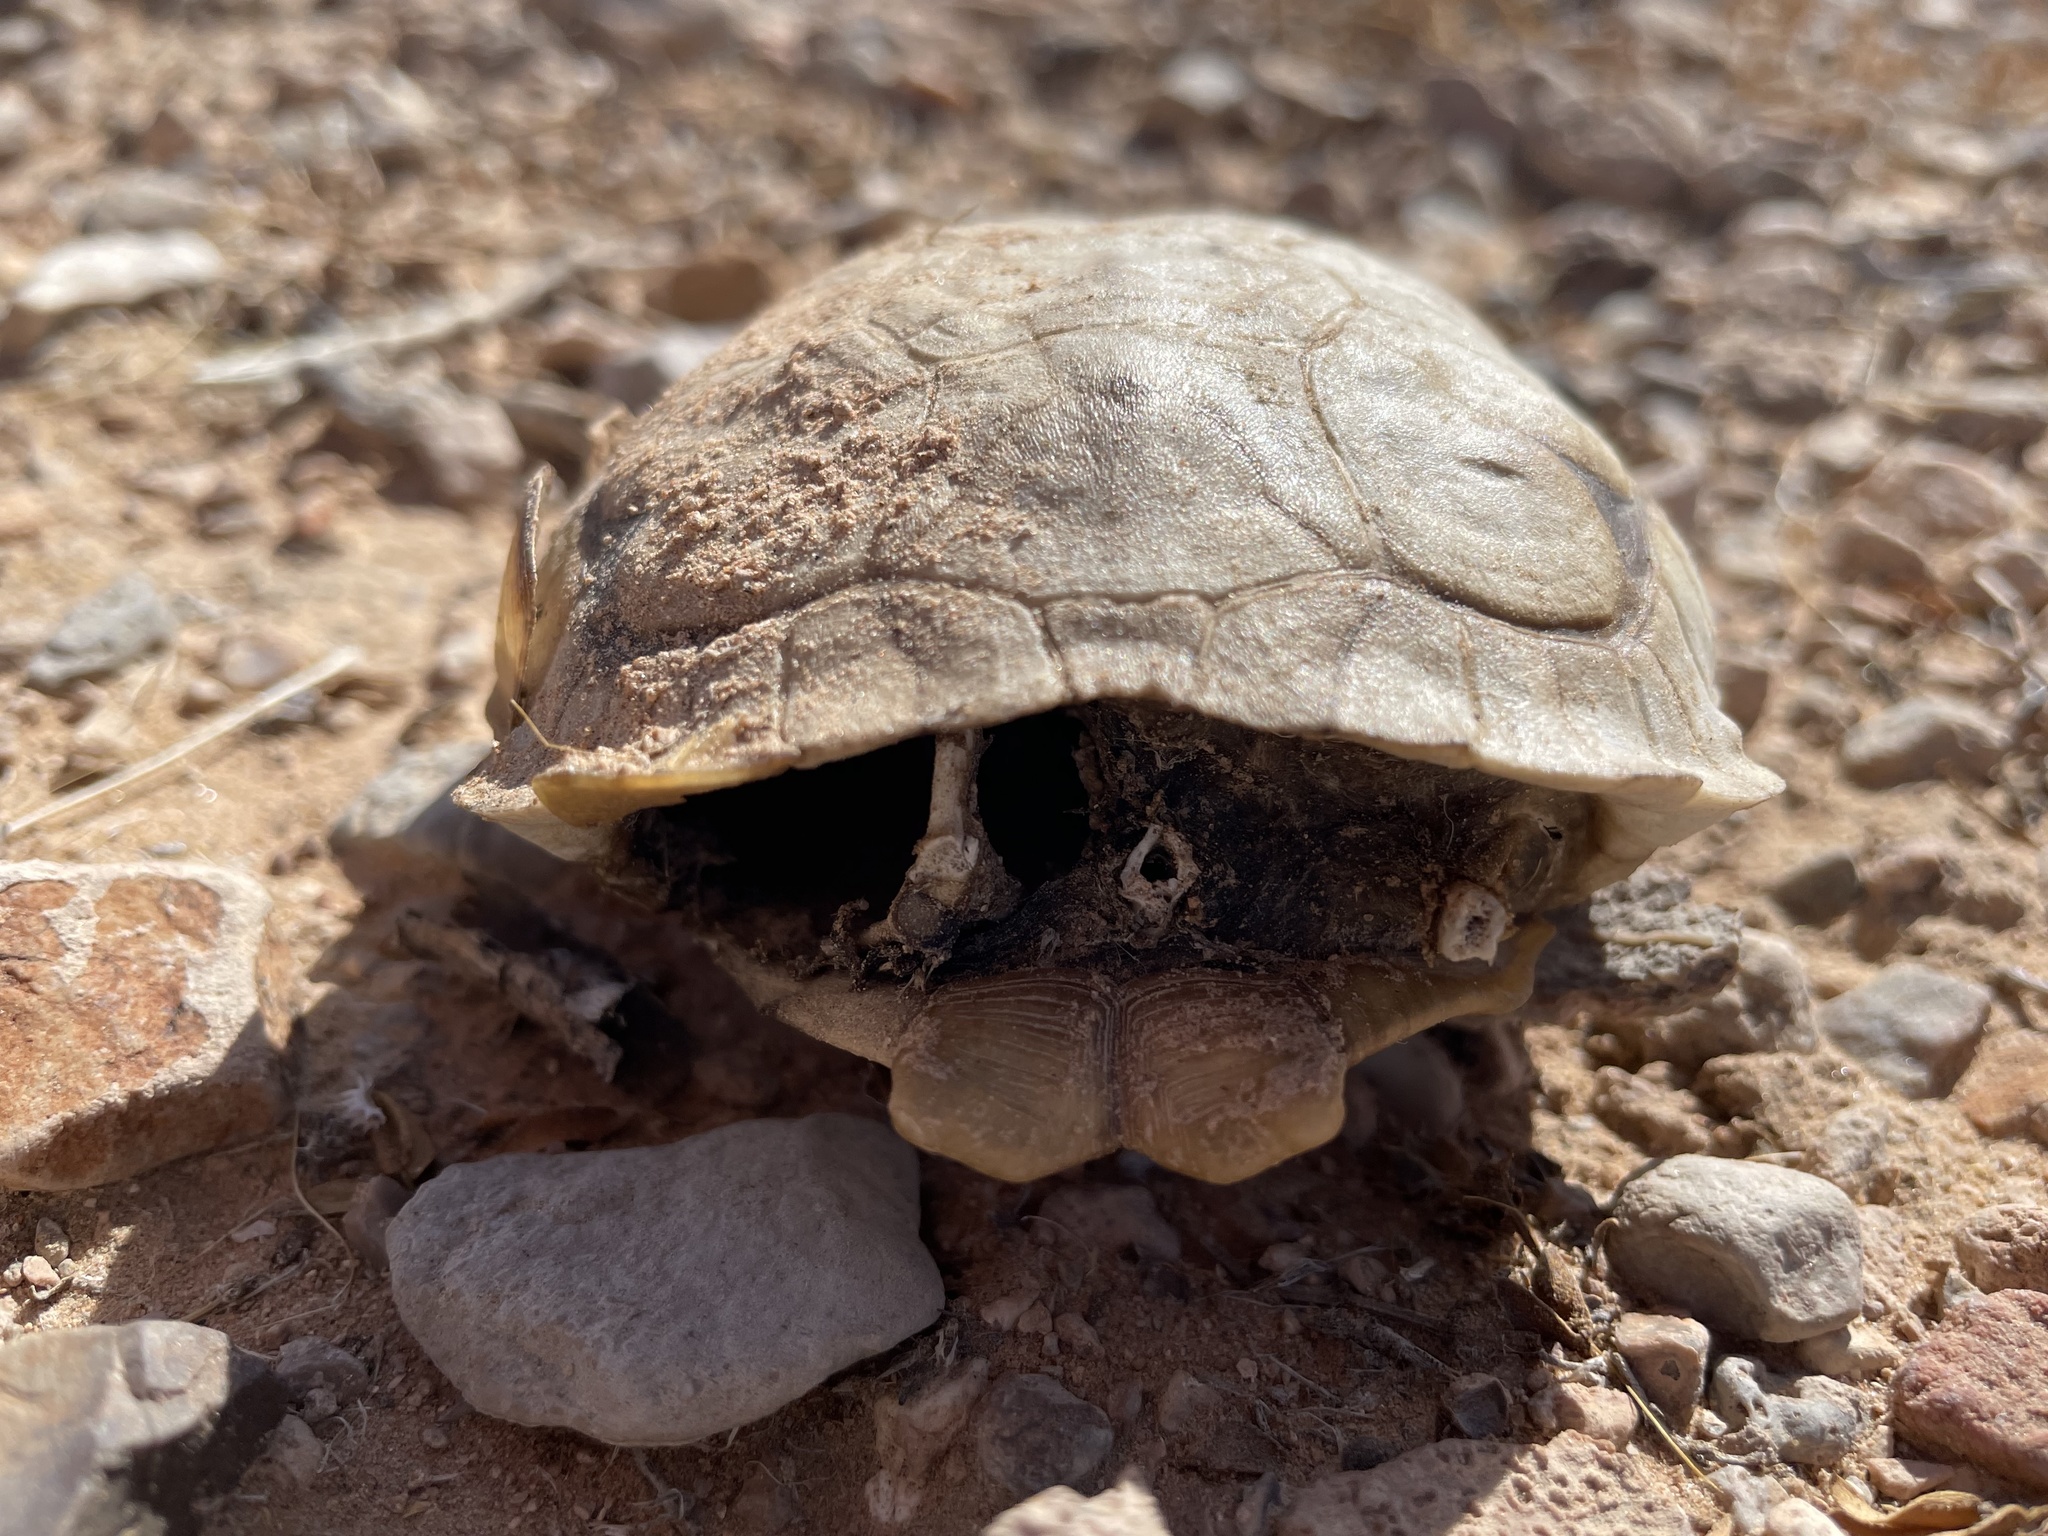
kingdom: Animalia
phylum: Chordata
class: Testudines
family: Testudinidae
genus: Gopherus
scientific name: Gopherus agassizii
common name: Mojave desert tortoise
